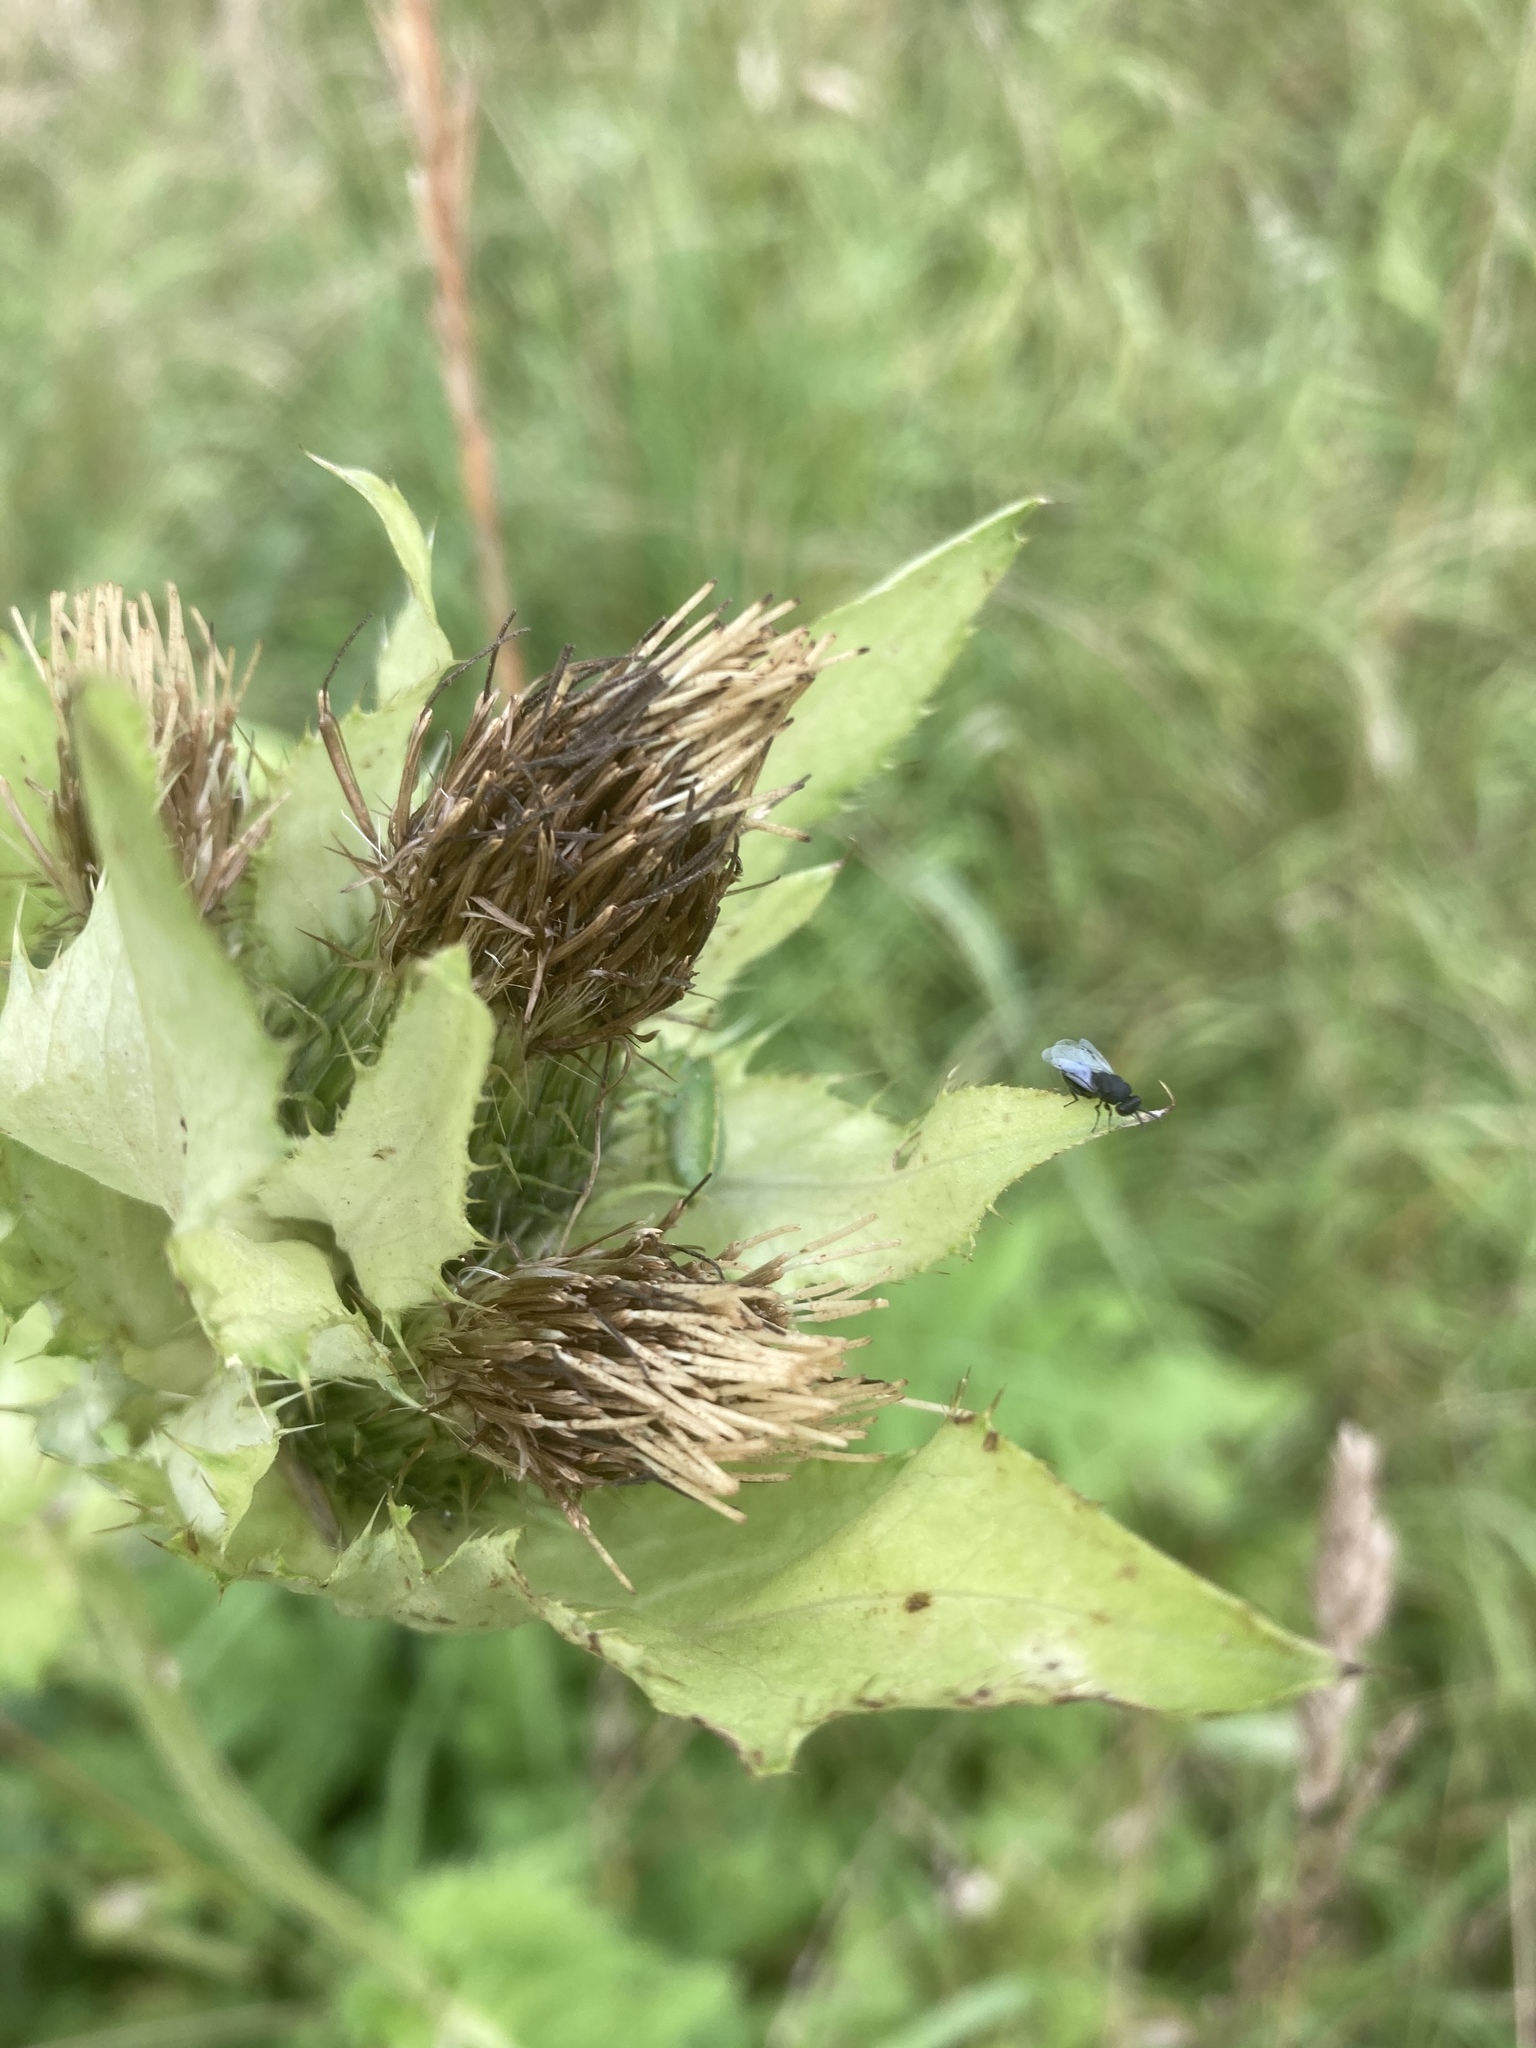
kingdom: Plantae
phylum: Tracheophyta
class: Magnoliopsida
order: Asterales
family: Asteraceae
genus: Cirsium
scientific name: Cirsium oleraceum
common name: Cabbage thistle
